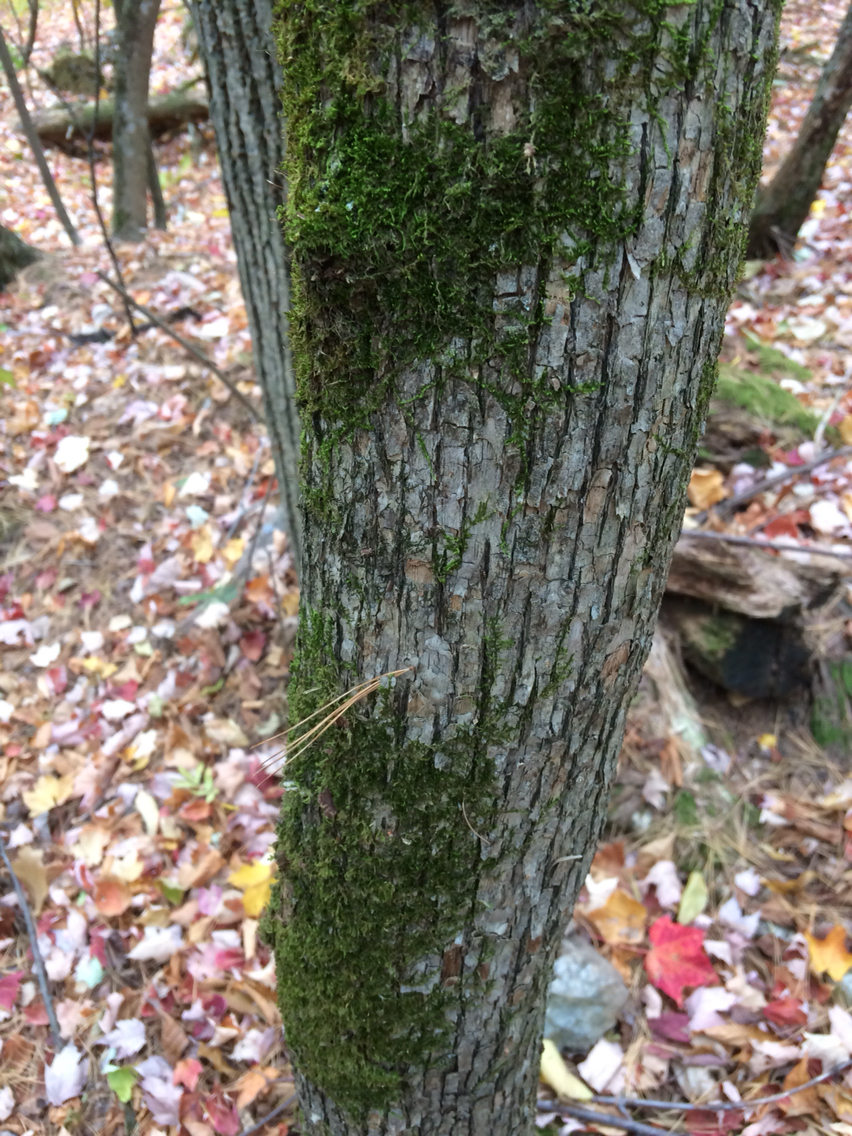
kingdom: Plantae
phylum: Tracheophyta
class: Magnoliopsida
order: Fagales
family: Betulaceae
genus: Ostrya
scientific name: Ostrya virginiana
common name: Ironwood
